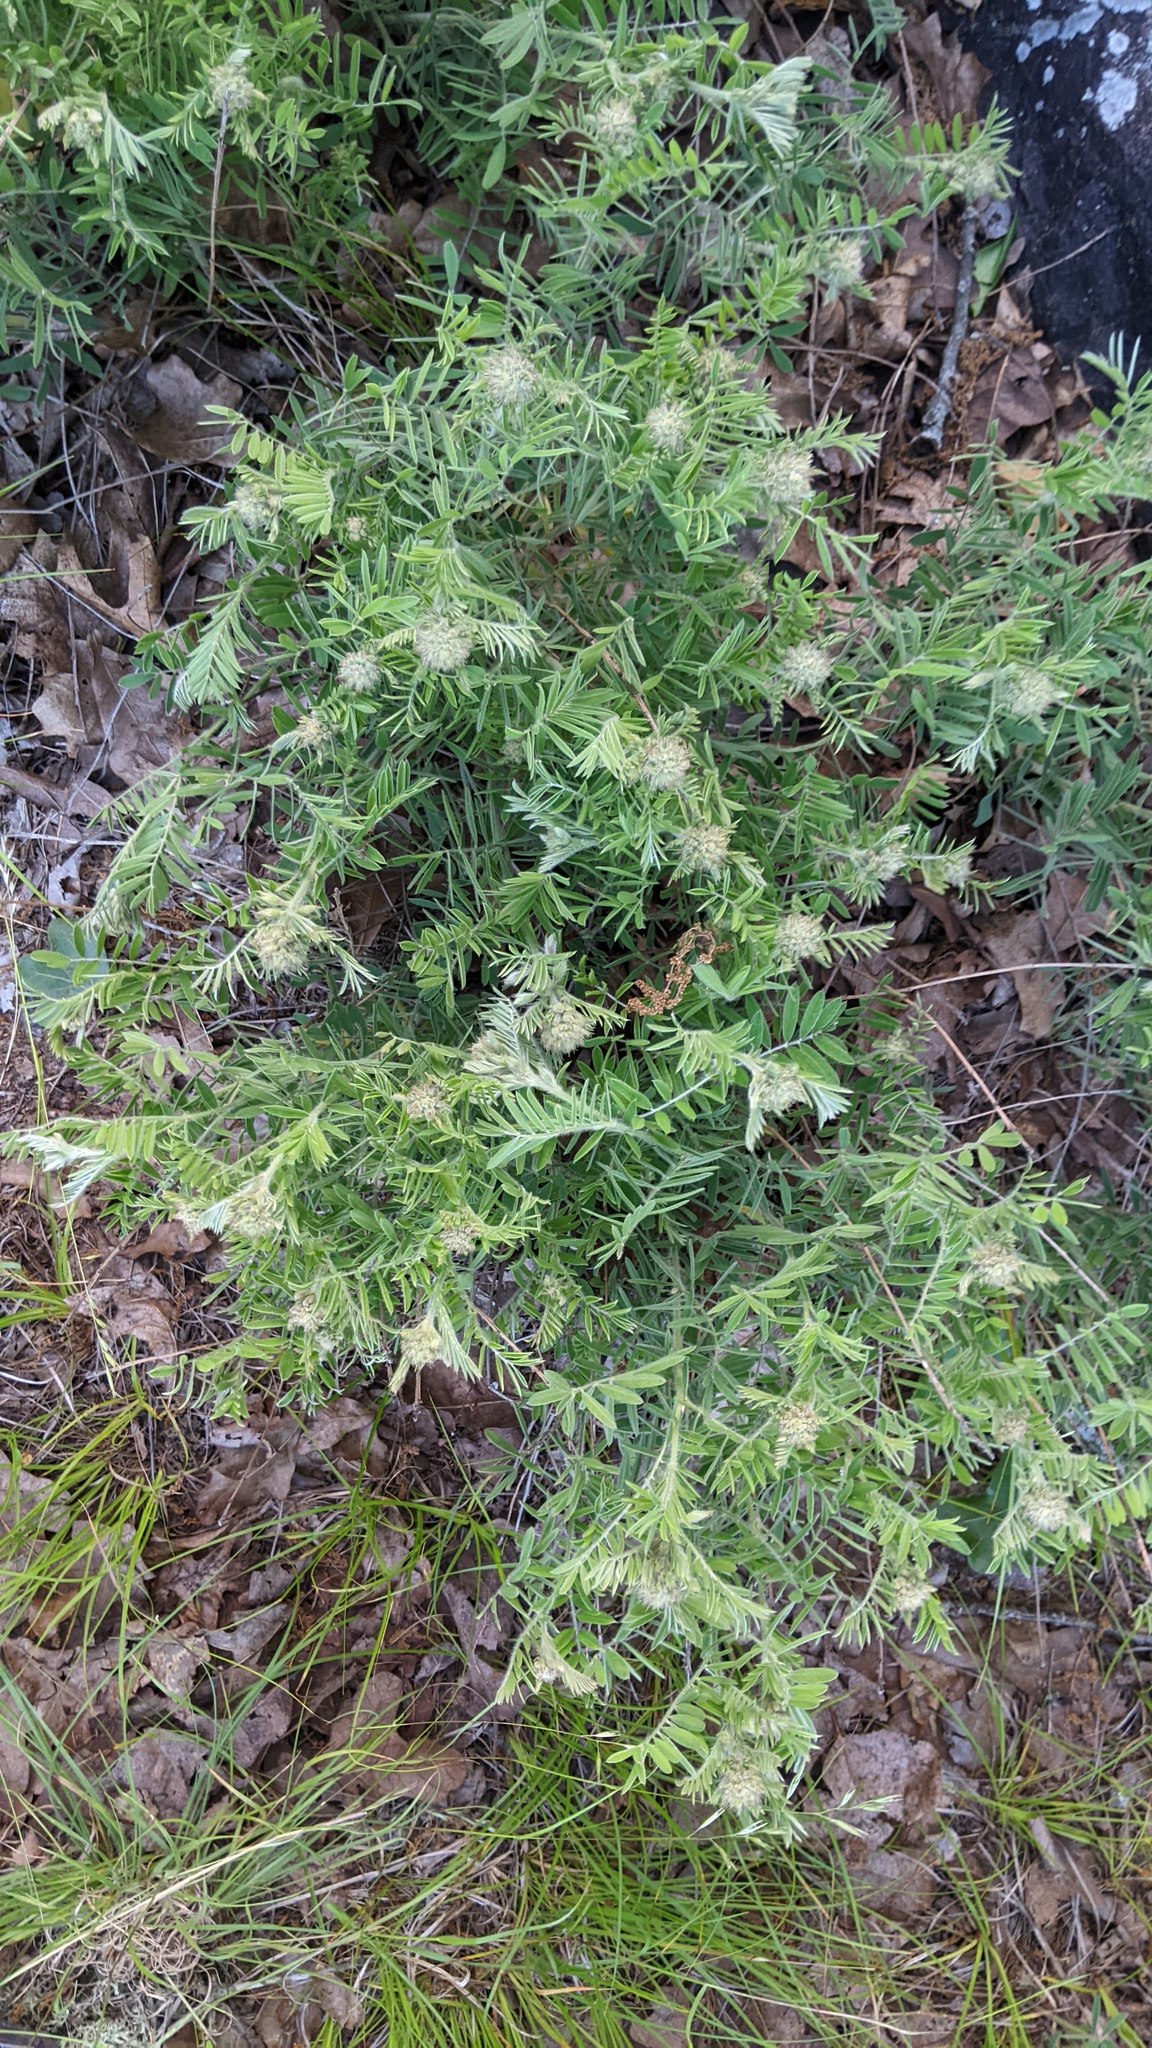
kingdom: Plantae
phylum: Tracheophyta
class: Magnoliopsida
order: Fabales
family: Fabaceae
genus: Tephrosia
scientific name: Tephrosia virginiana
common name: Rabbit-pea
